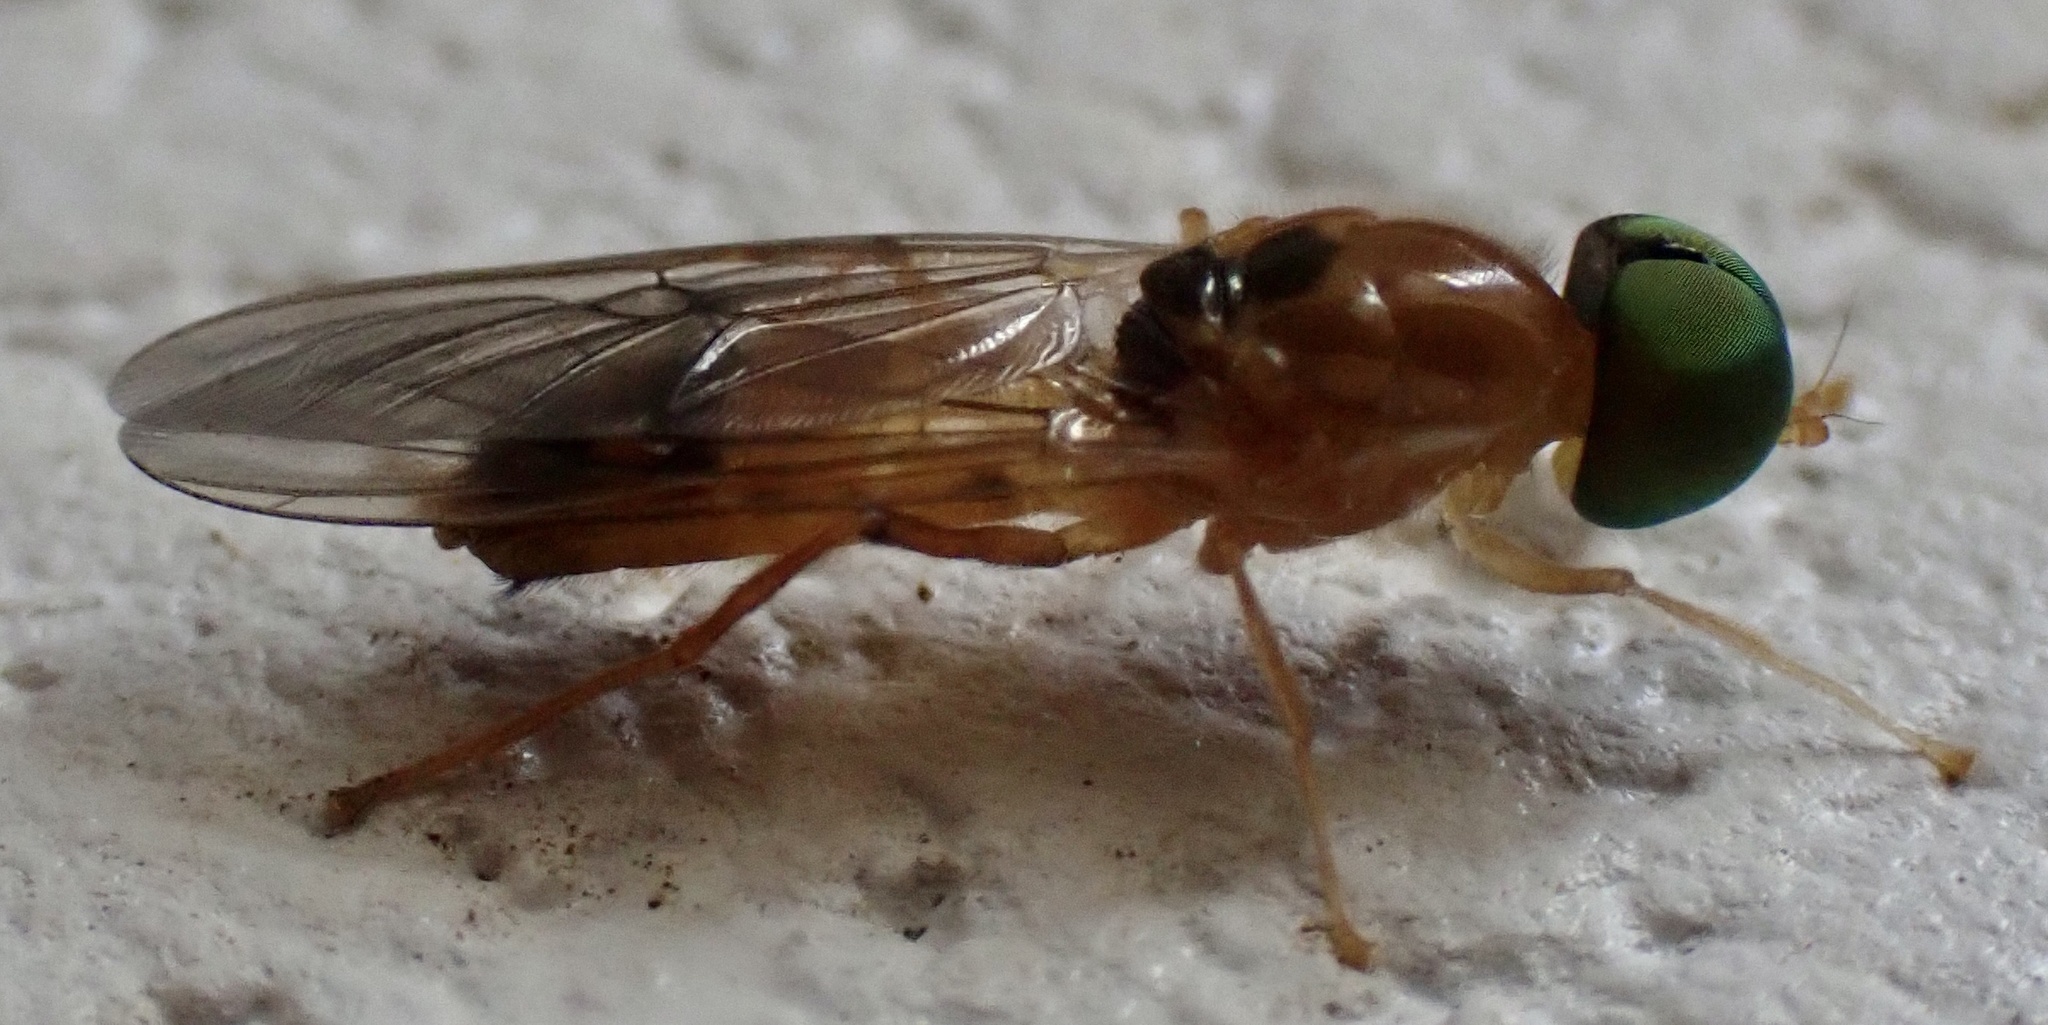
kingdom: Animalia
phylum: Arthropoda
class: Insecta
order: Diptera
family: Stratiomyidae
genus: Sargus
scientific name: Sargus elegans
